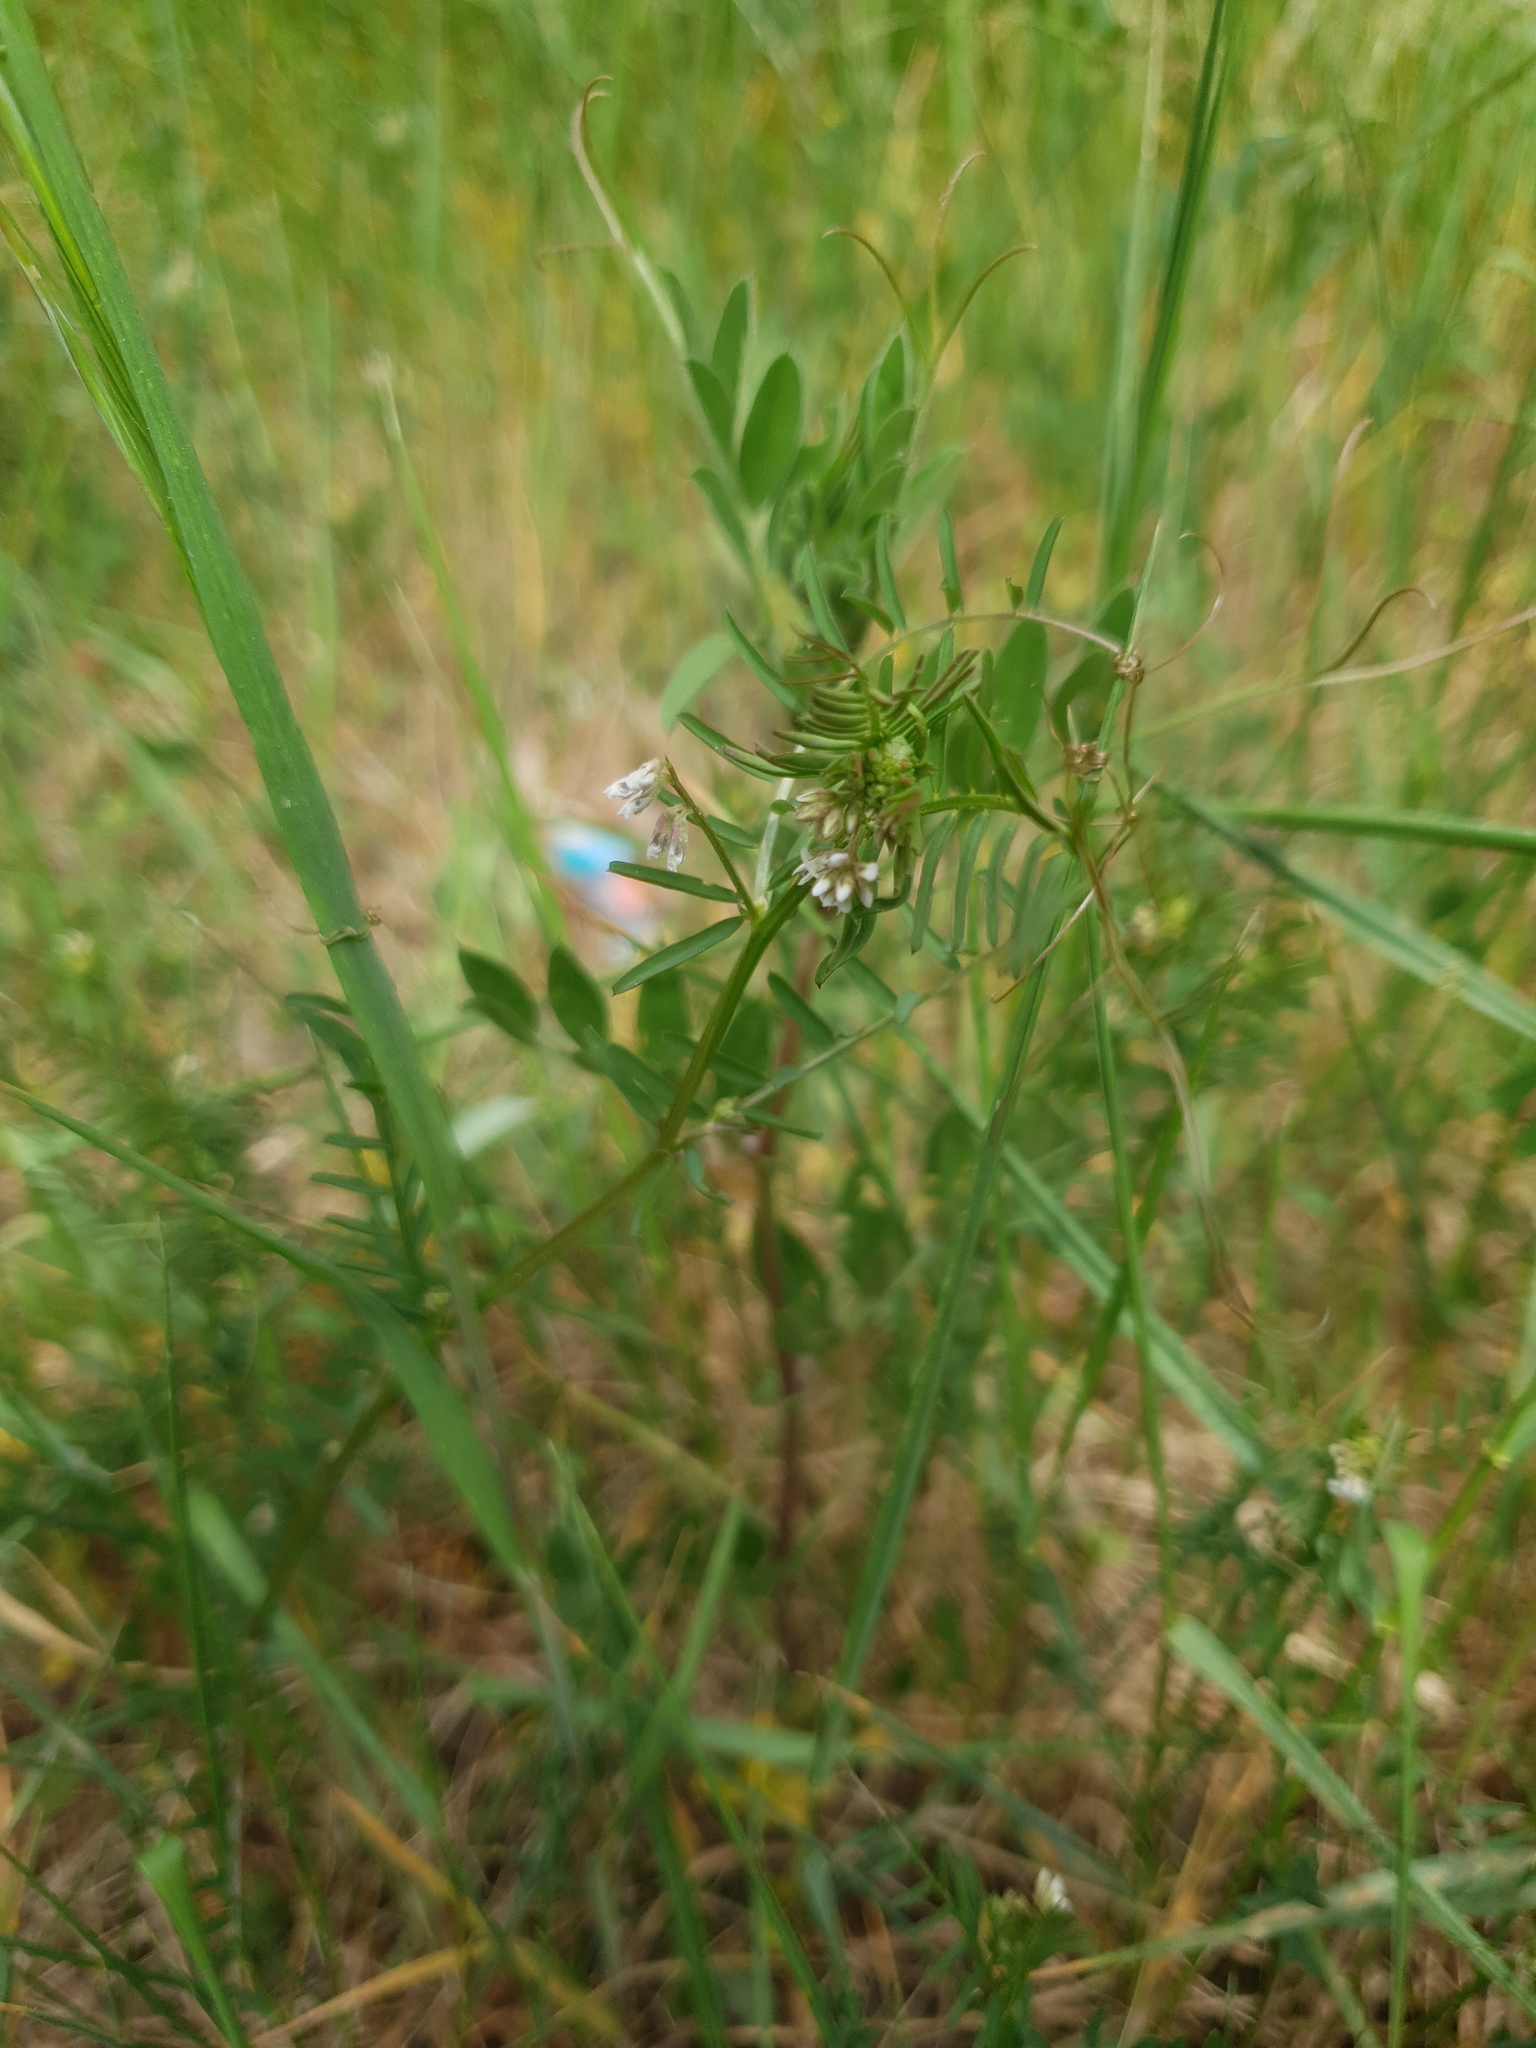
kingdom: Plantae
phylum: Tracheophyta
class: Magnoliopsida
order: Fabales
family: Fabaceae
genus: Vicia
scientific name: Vicia hirsuta
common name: Tiny vetch
